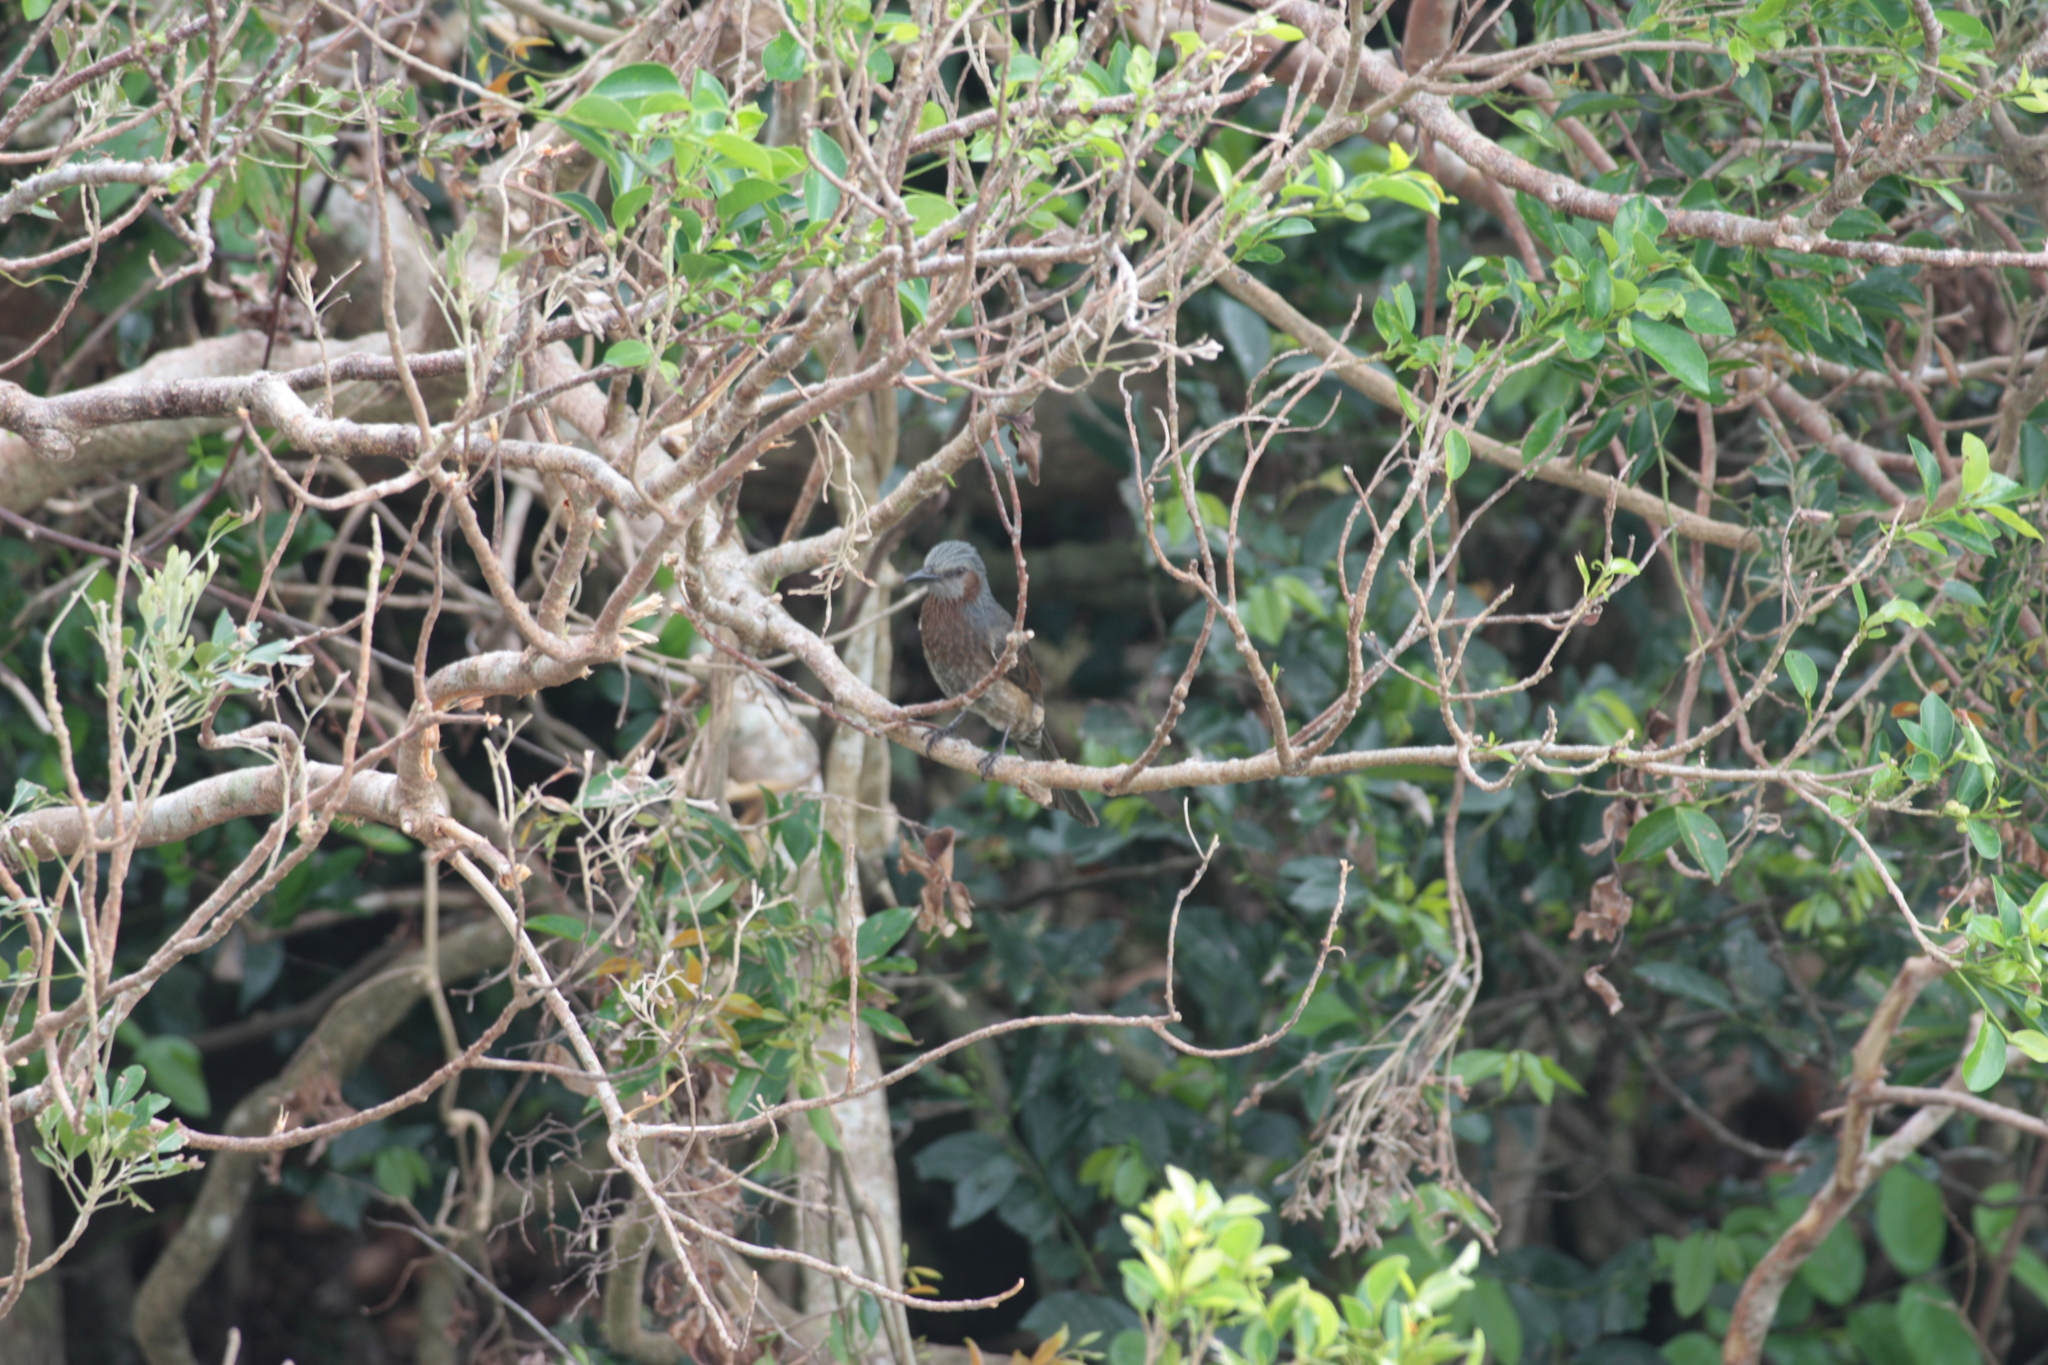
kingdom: Animalia
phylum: Chordata
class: Aves
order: Passeriformes
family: Pycnonotidae
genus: Hypsipetes
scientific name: Hypsipetes amaurotis
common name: Brown-eared bulbul
